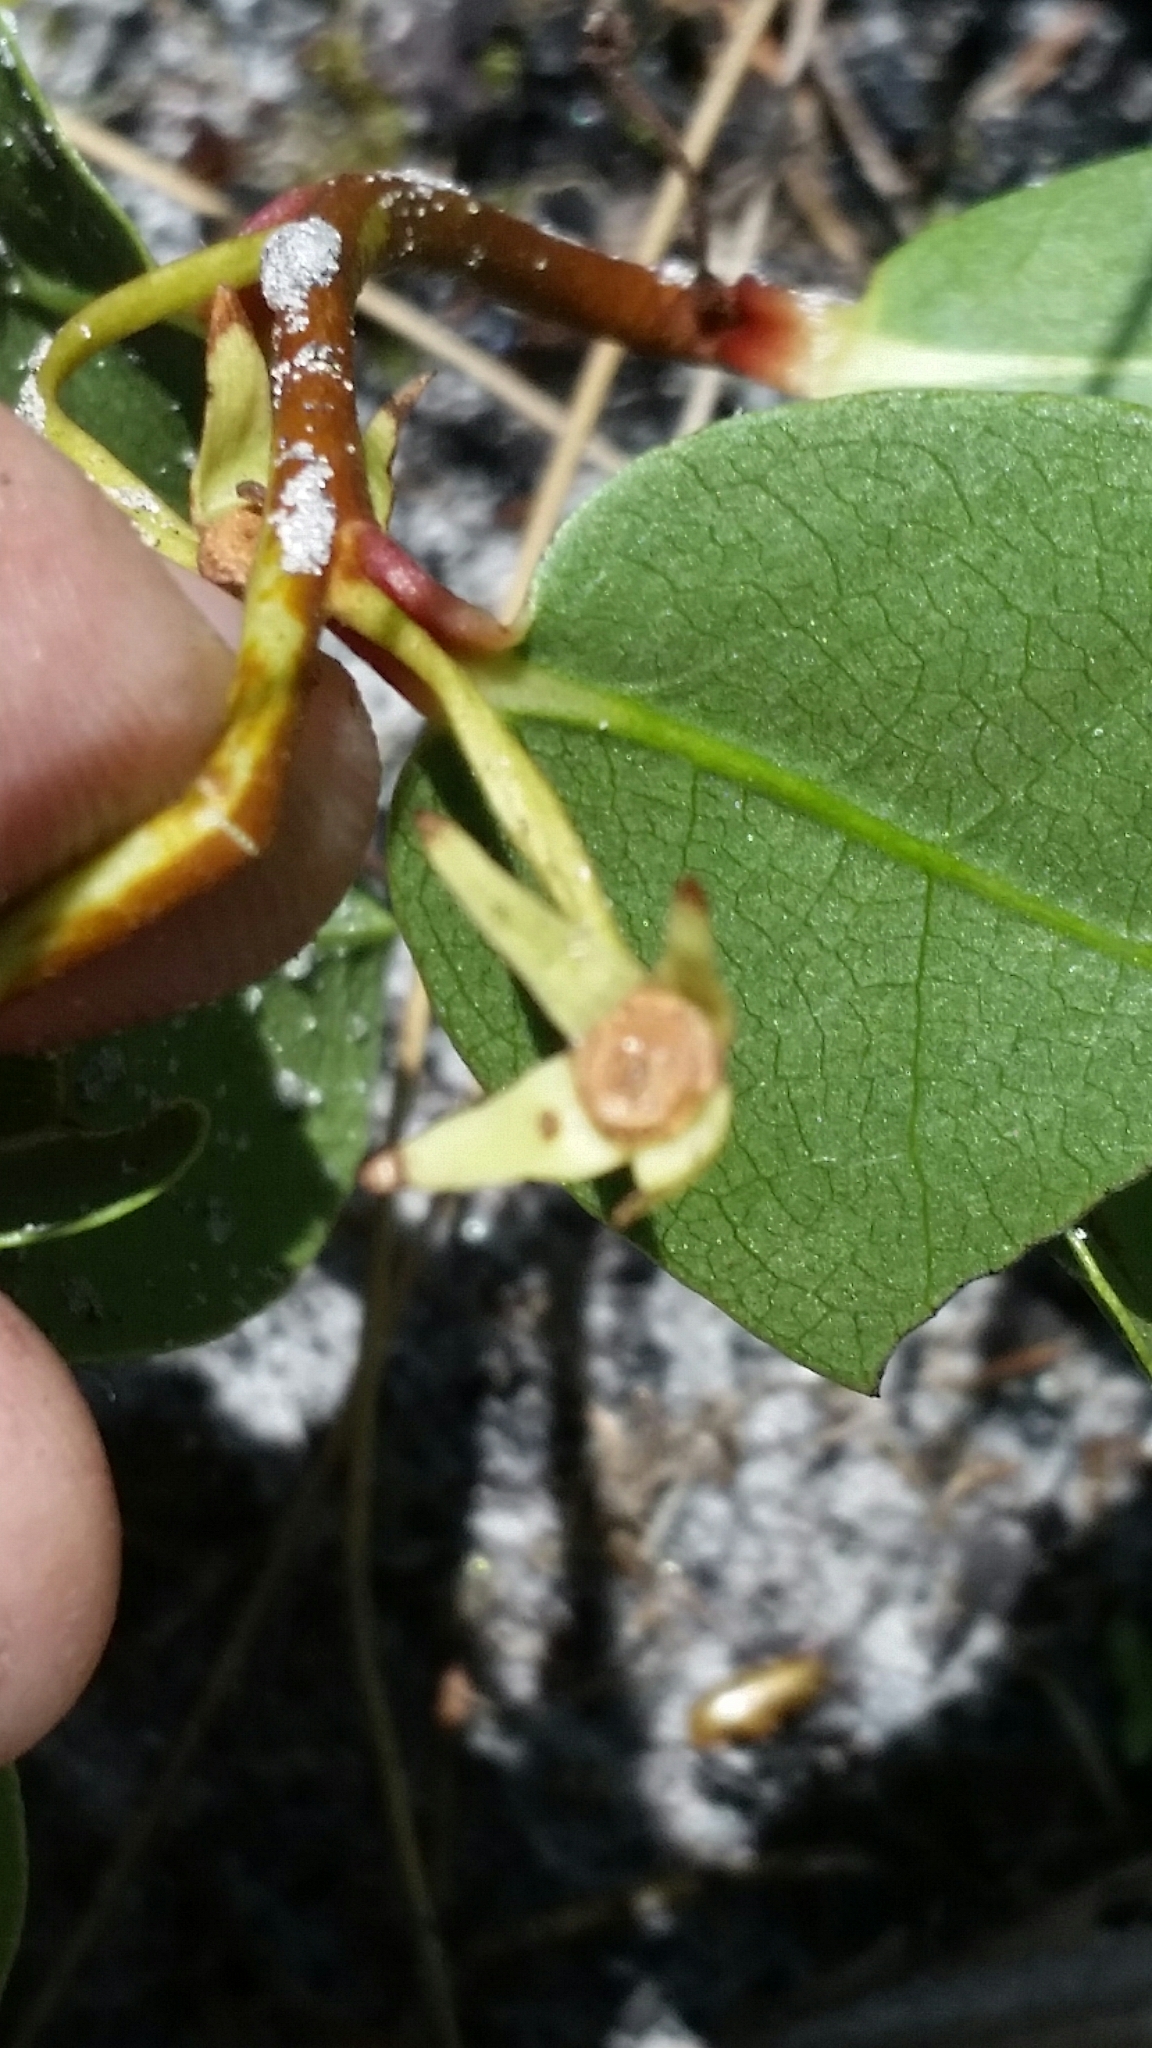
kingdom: Plantae
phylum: Tracheophyta
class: Magnoliopsida
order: Magnoliales
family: Annonaceae
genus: Asimina
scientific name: Asimina pulchella
